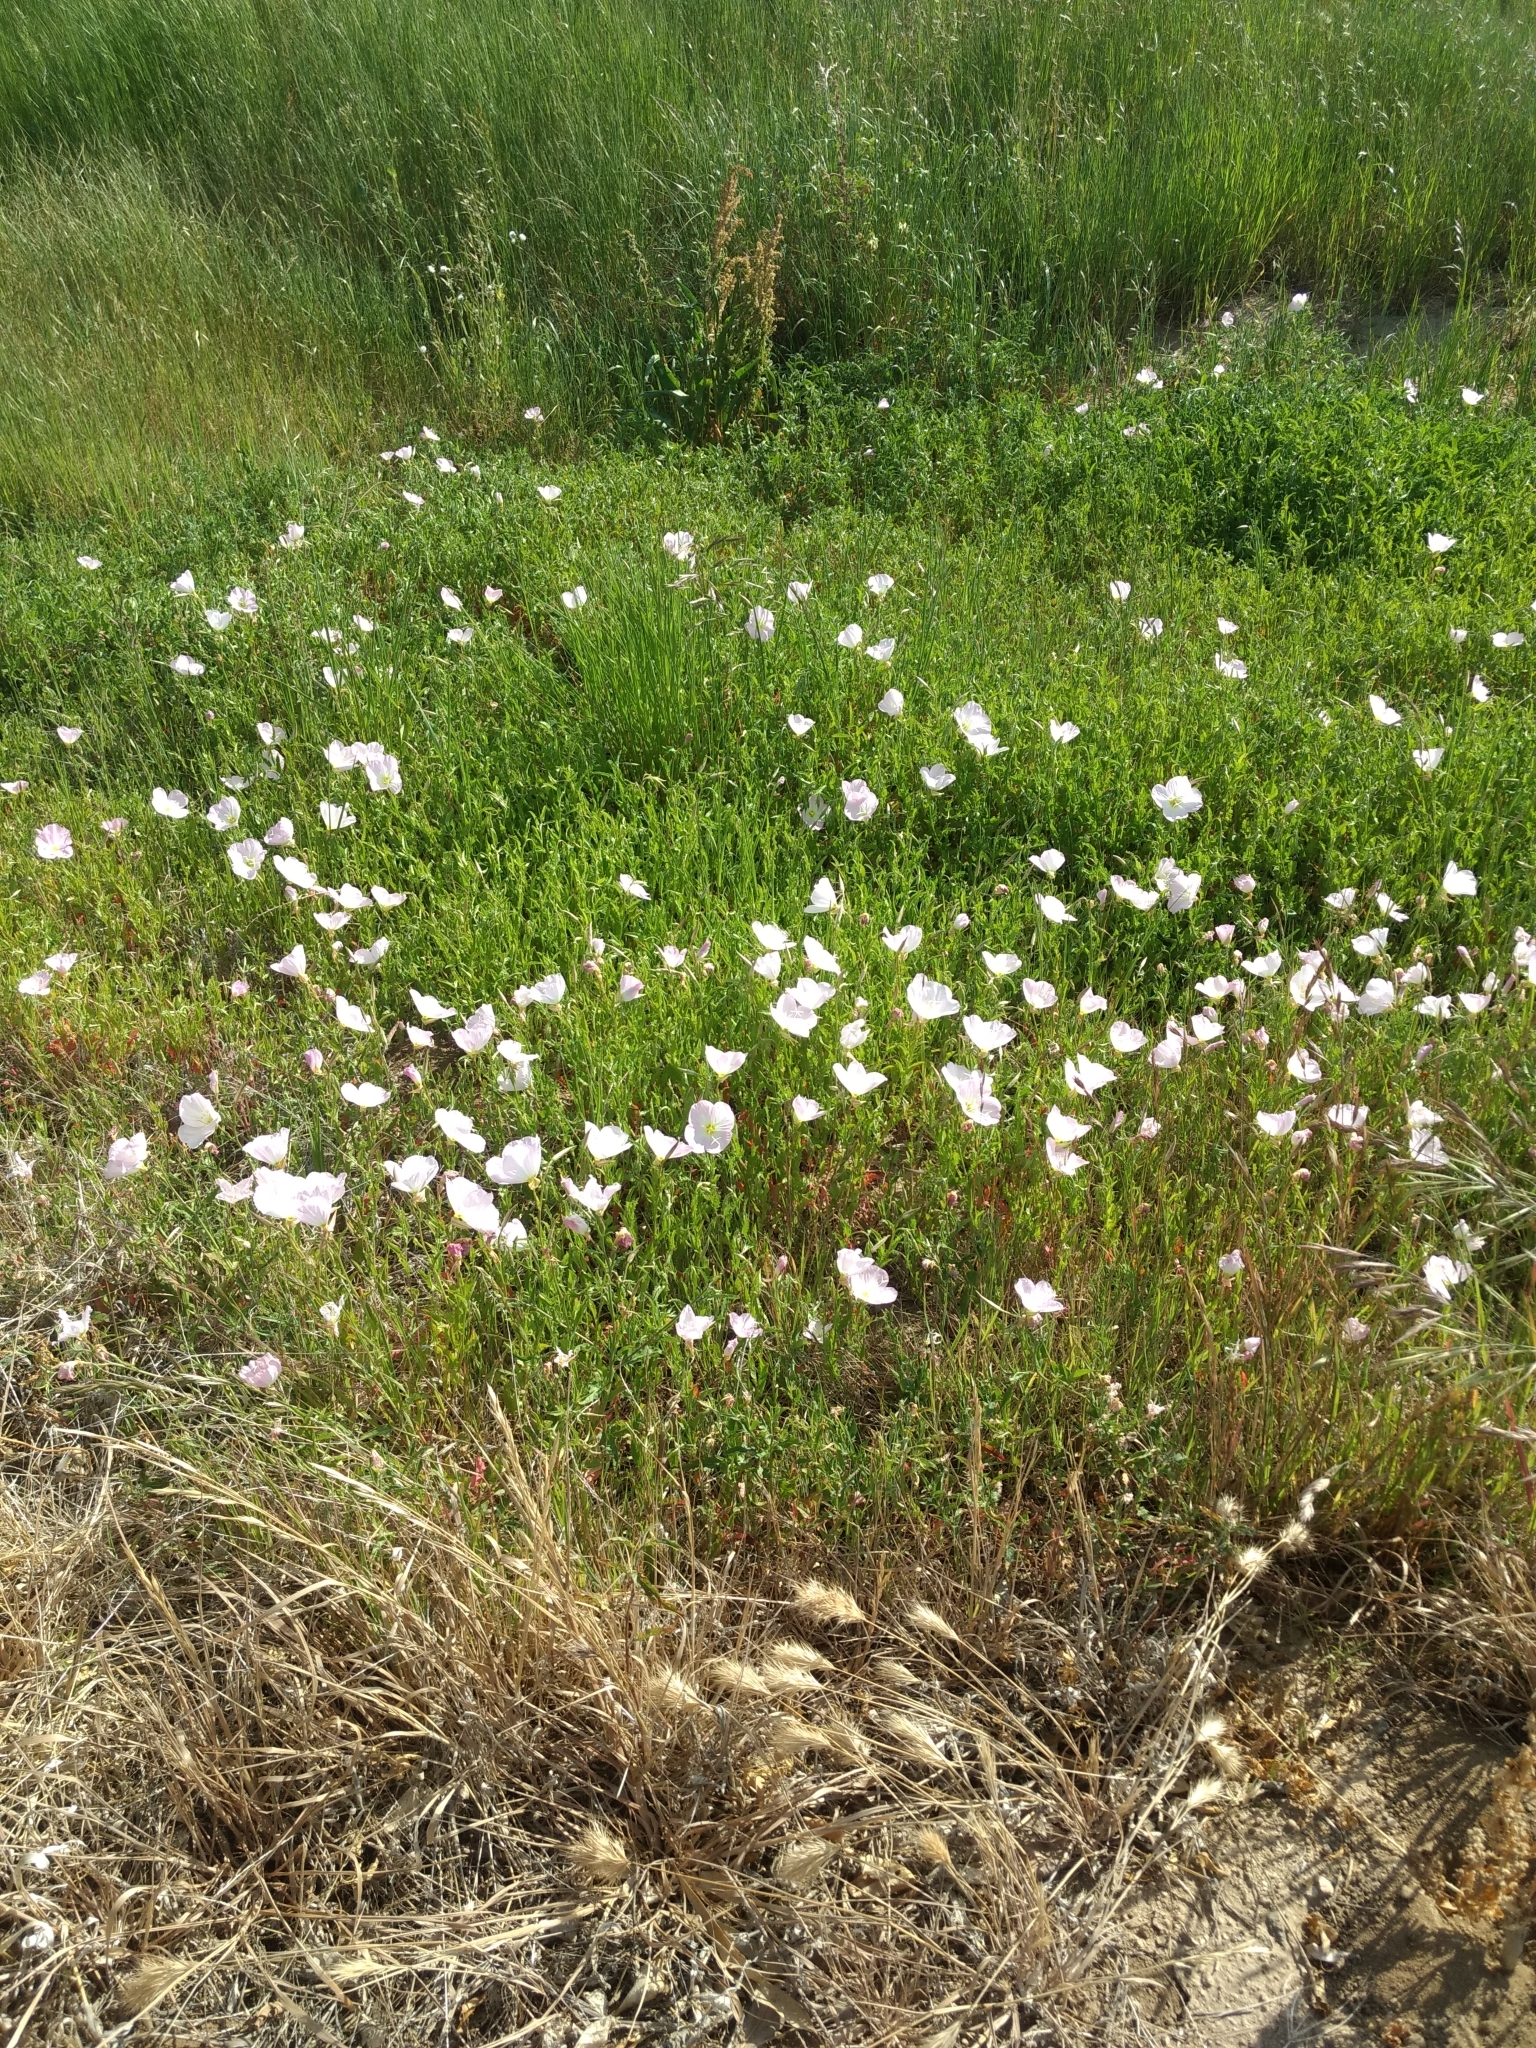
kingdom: Plantae
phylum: Tracheophyta
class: Magnoliopsida
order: Myrtales
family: Onagraceae
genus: Oenothera
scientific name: Oenothera speciosa
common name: White evening-primrose
